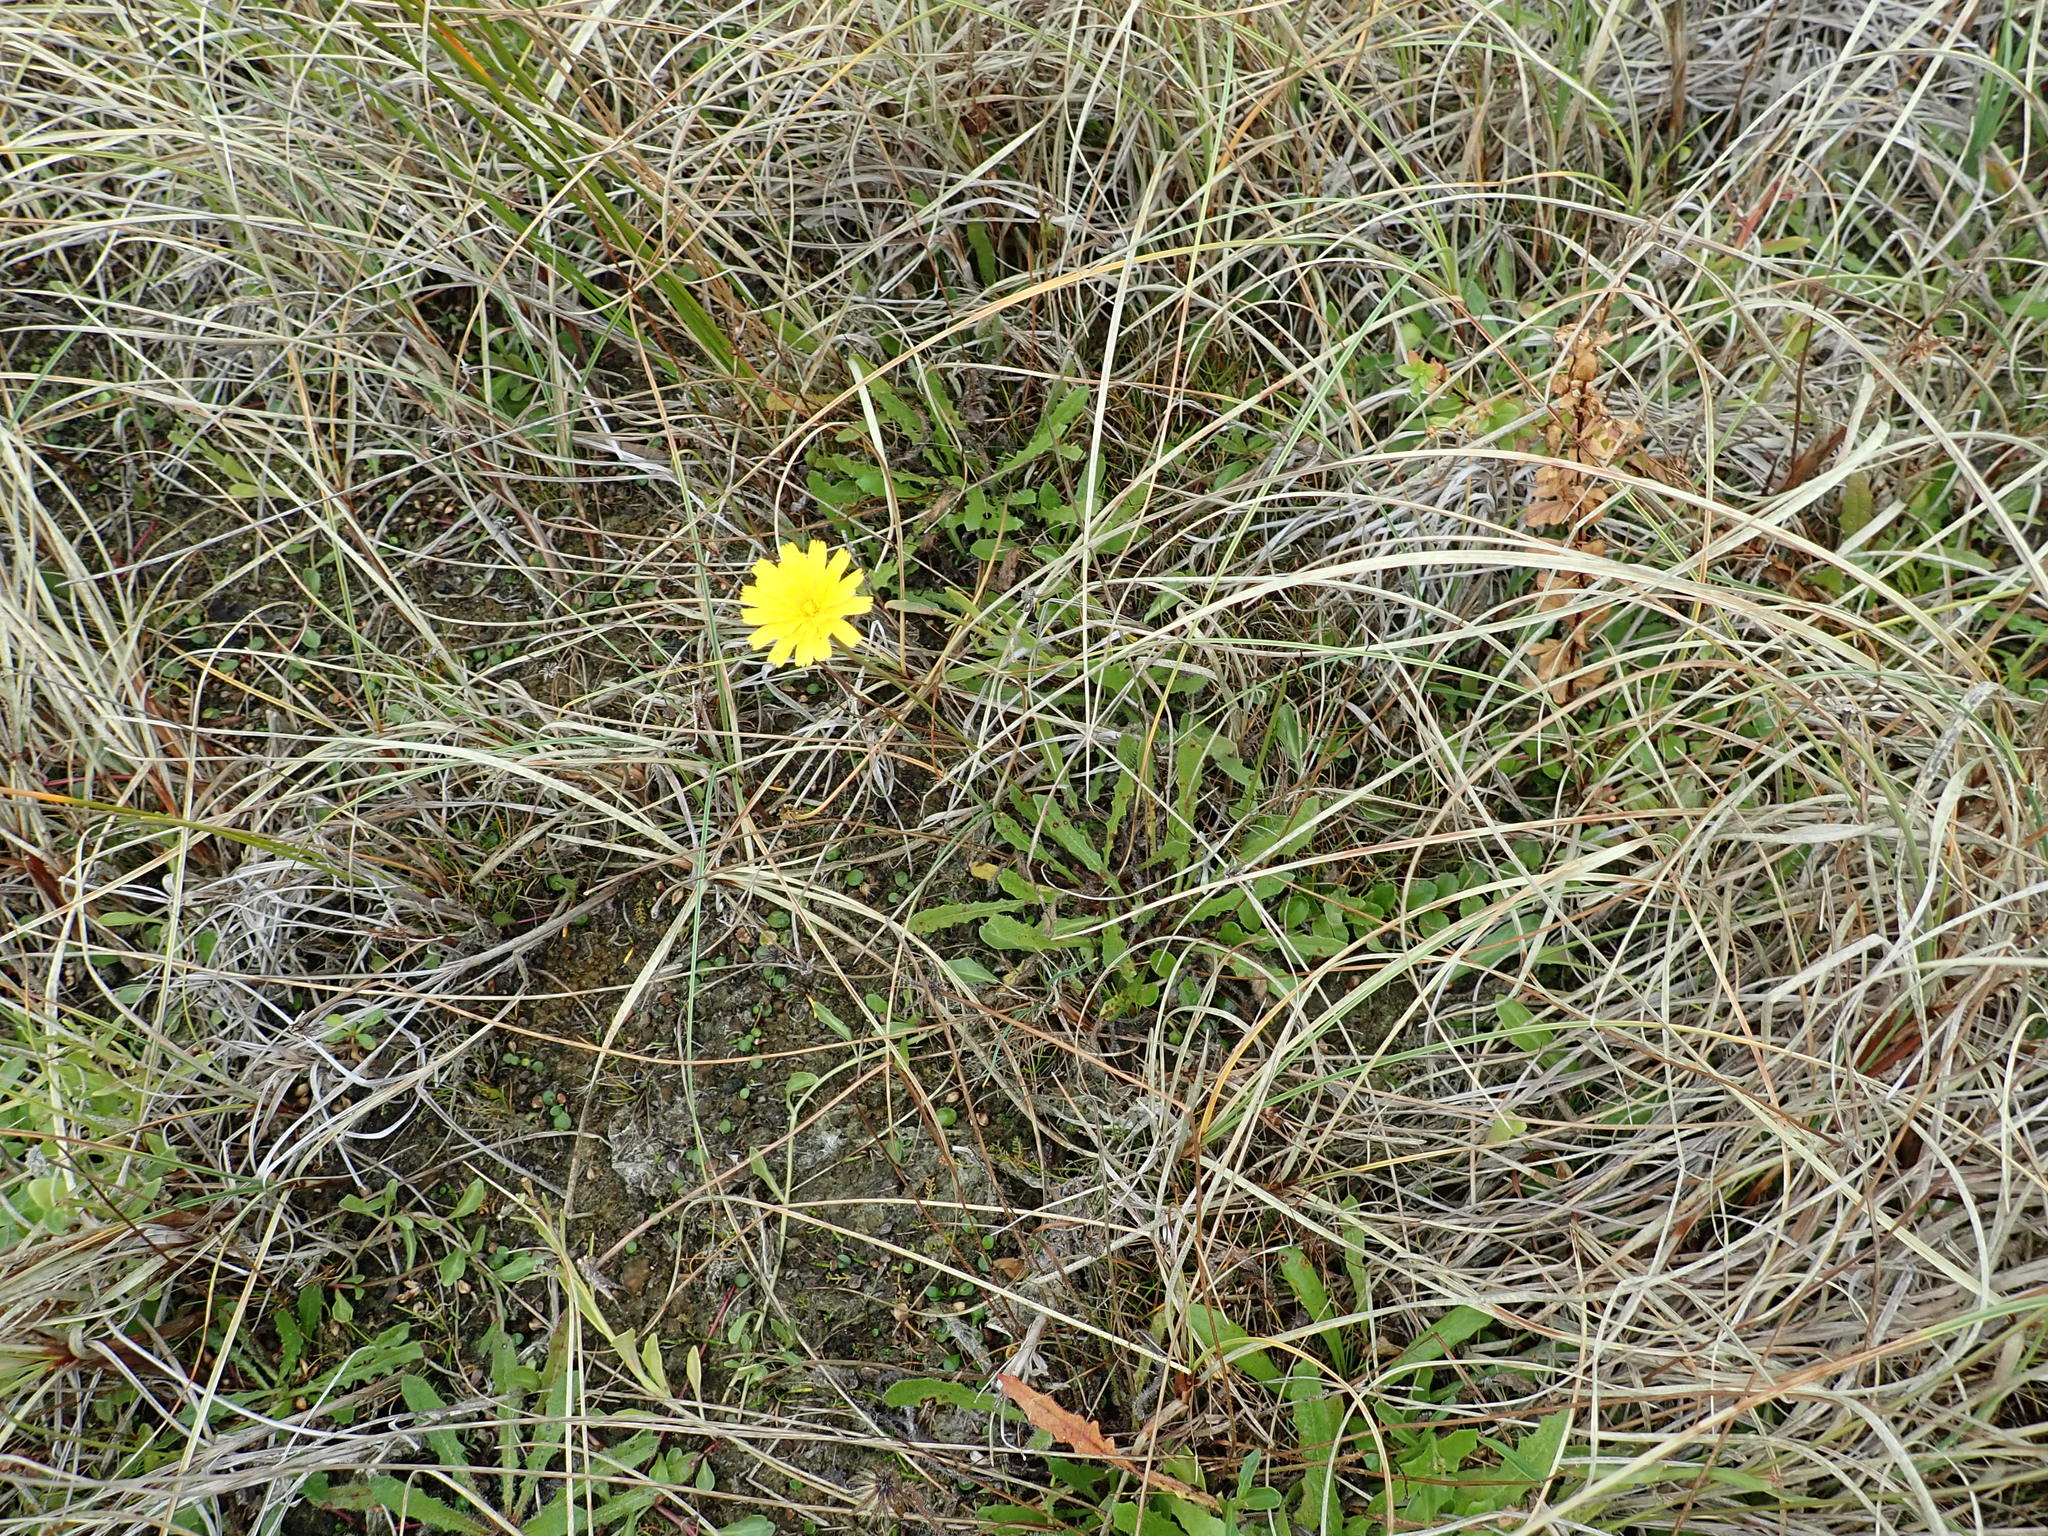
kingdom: Plantae
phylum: Tracheophyta
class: Magnoliopsida
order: Asterales
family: Asteraceae
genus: Thrincia
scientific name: Thrincia saxatilis
